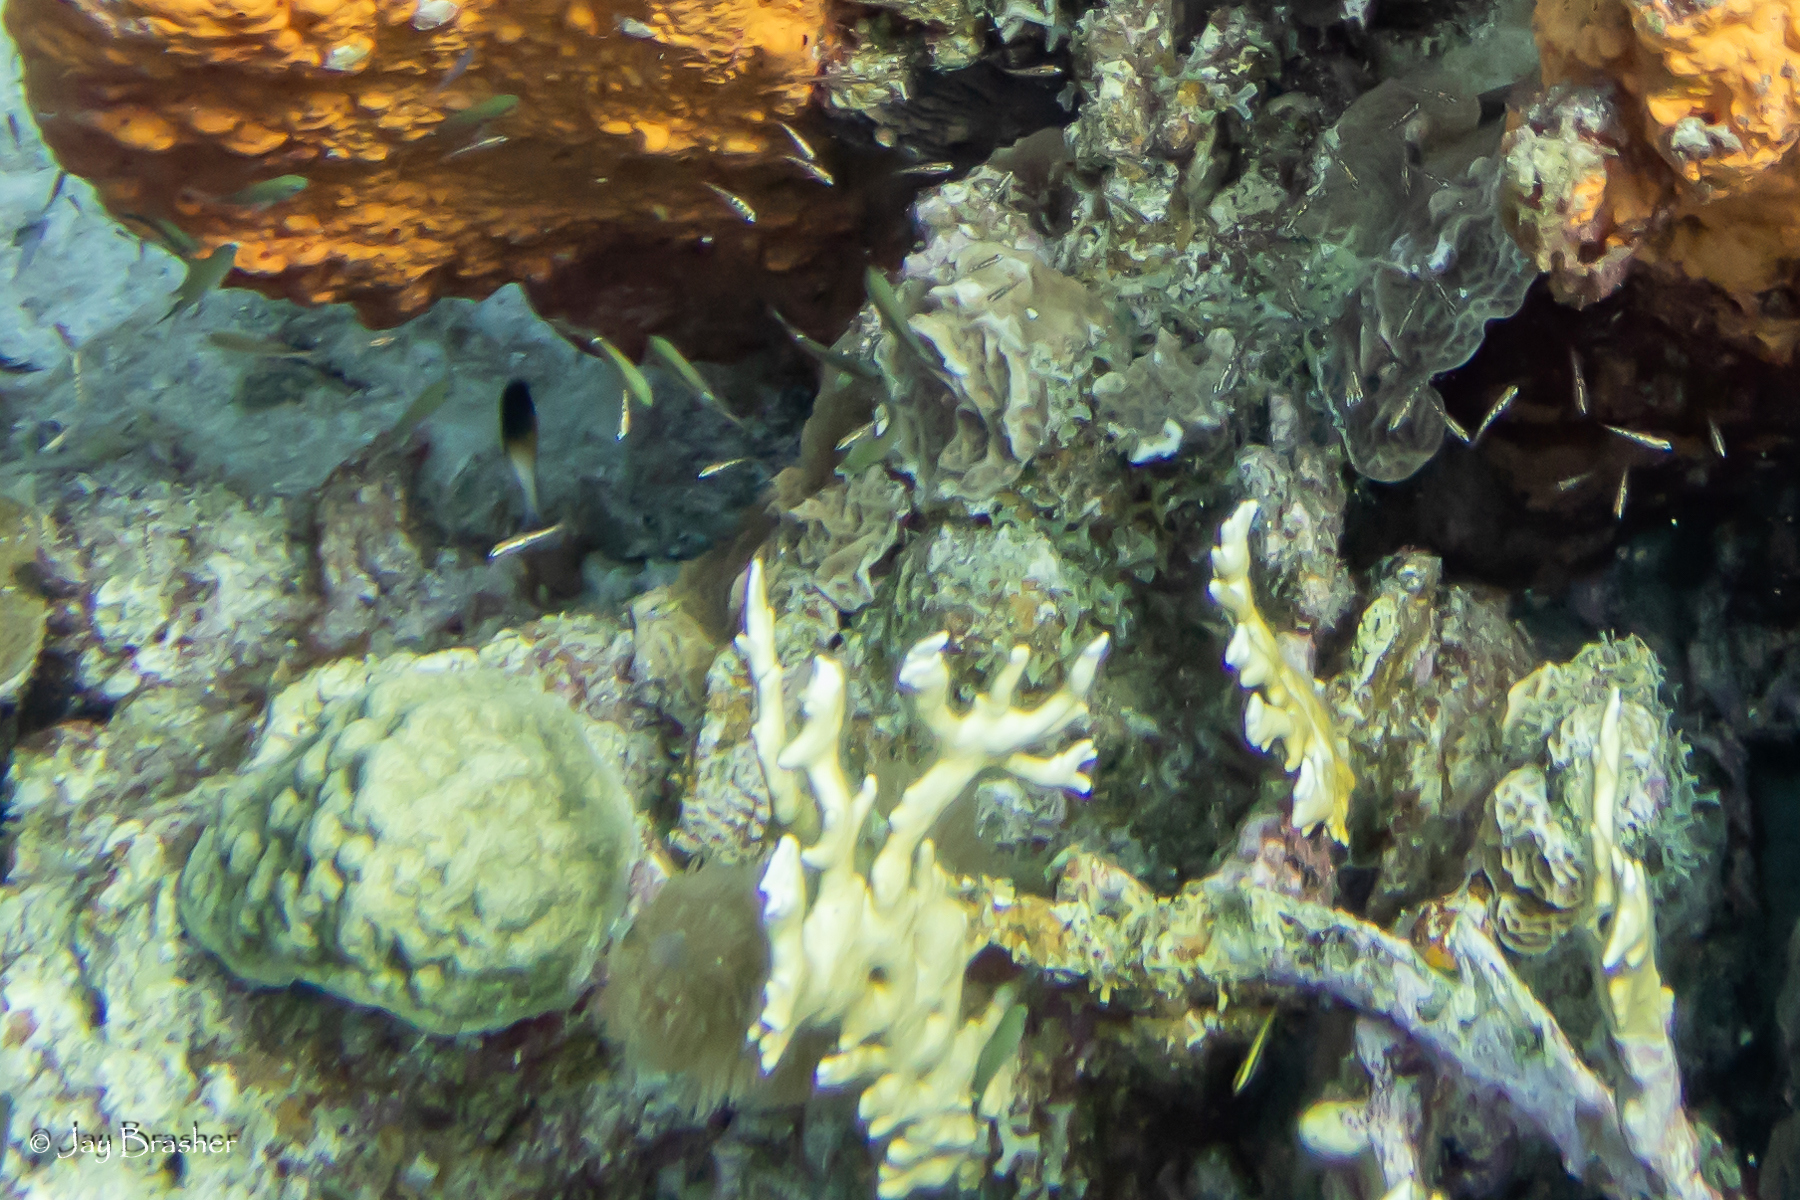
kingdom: Animalia
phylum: Cnidaria
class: Anthozoa
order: Scleractinia
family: Poritidae
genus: Porites
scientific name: Porites astreoides
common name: Mustard hill coral
